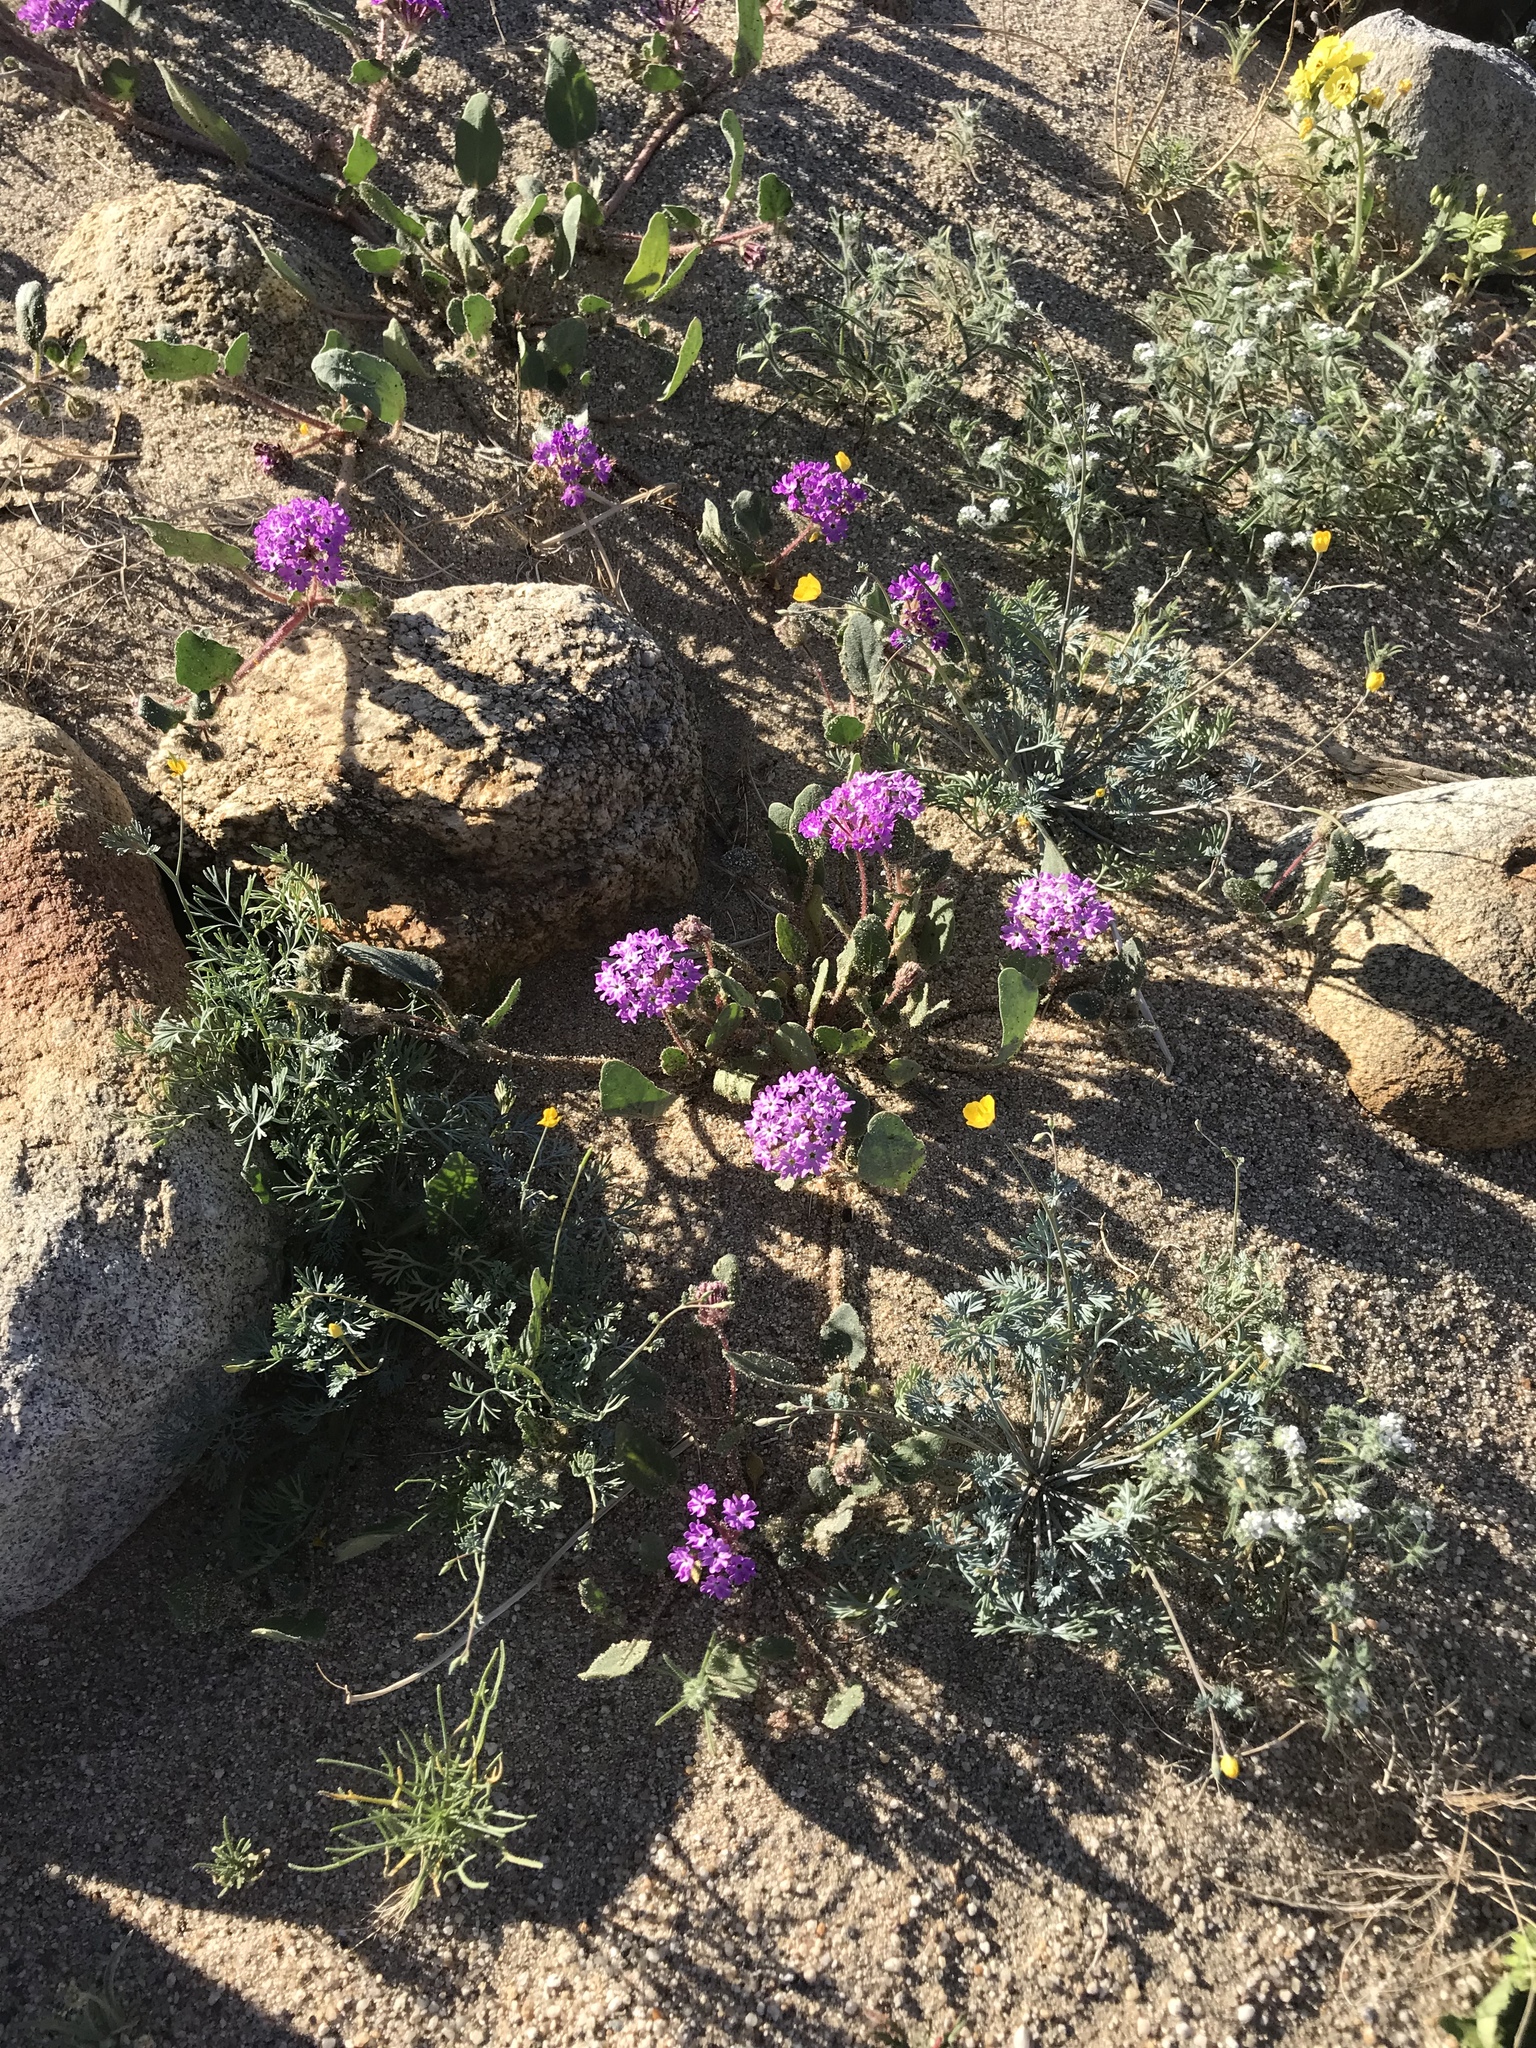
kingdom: Plantae
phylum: Tracheophyta
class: Magnoliopsida
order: Caryophyllales
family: Nyctaginaceae
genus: Abronia
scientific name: Abronia villosa
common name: Desert sand-verbena
